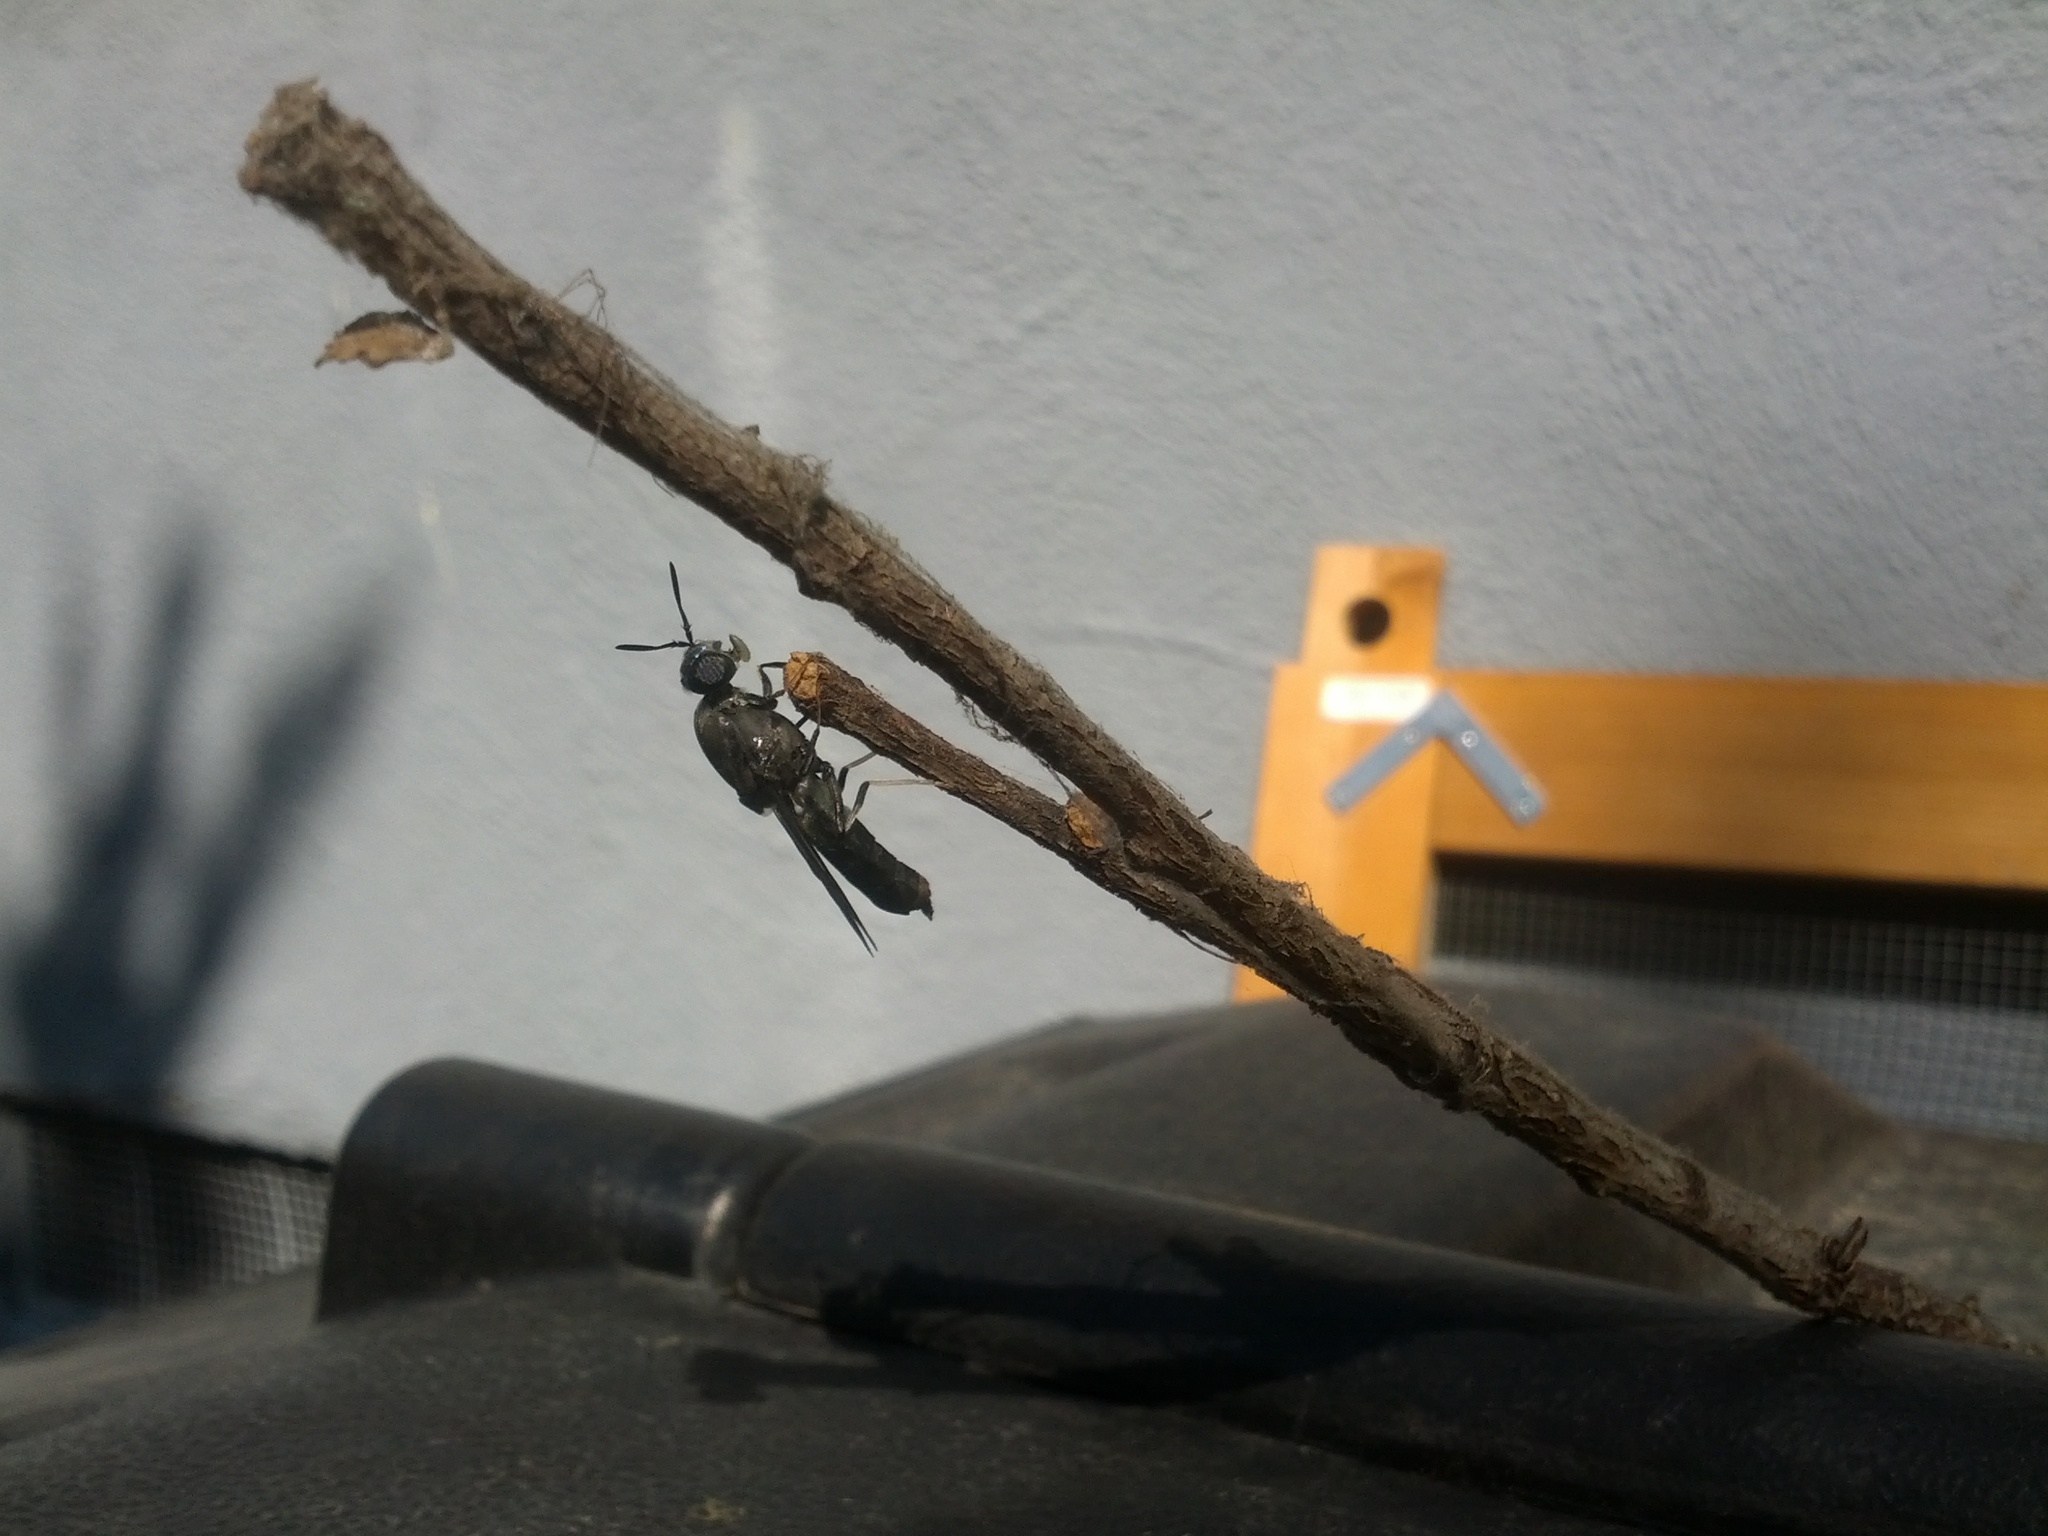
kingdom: Animalia
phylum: Arthropoda
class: Insecta
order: Diptera
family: Stratiomyidae
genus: Hermetia
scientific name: Hermetia illucens
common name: Black soldier fly
